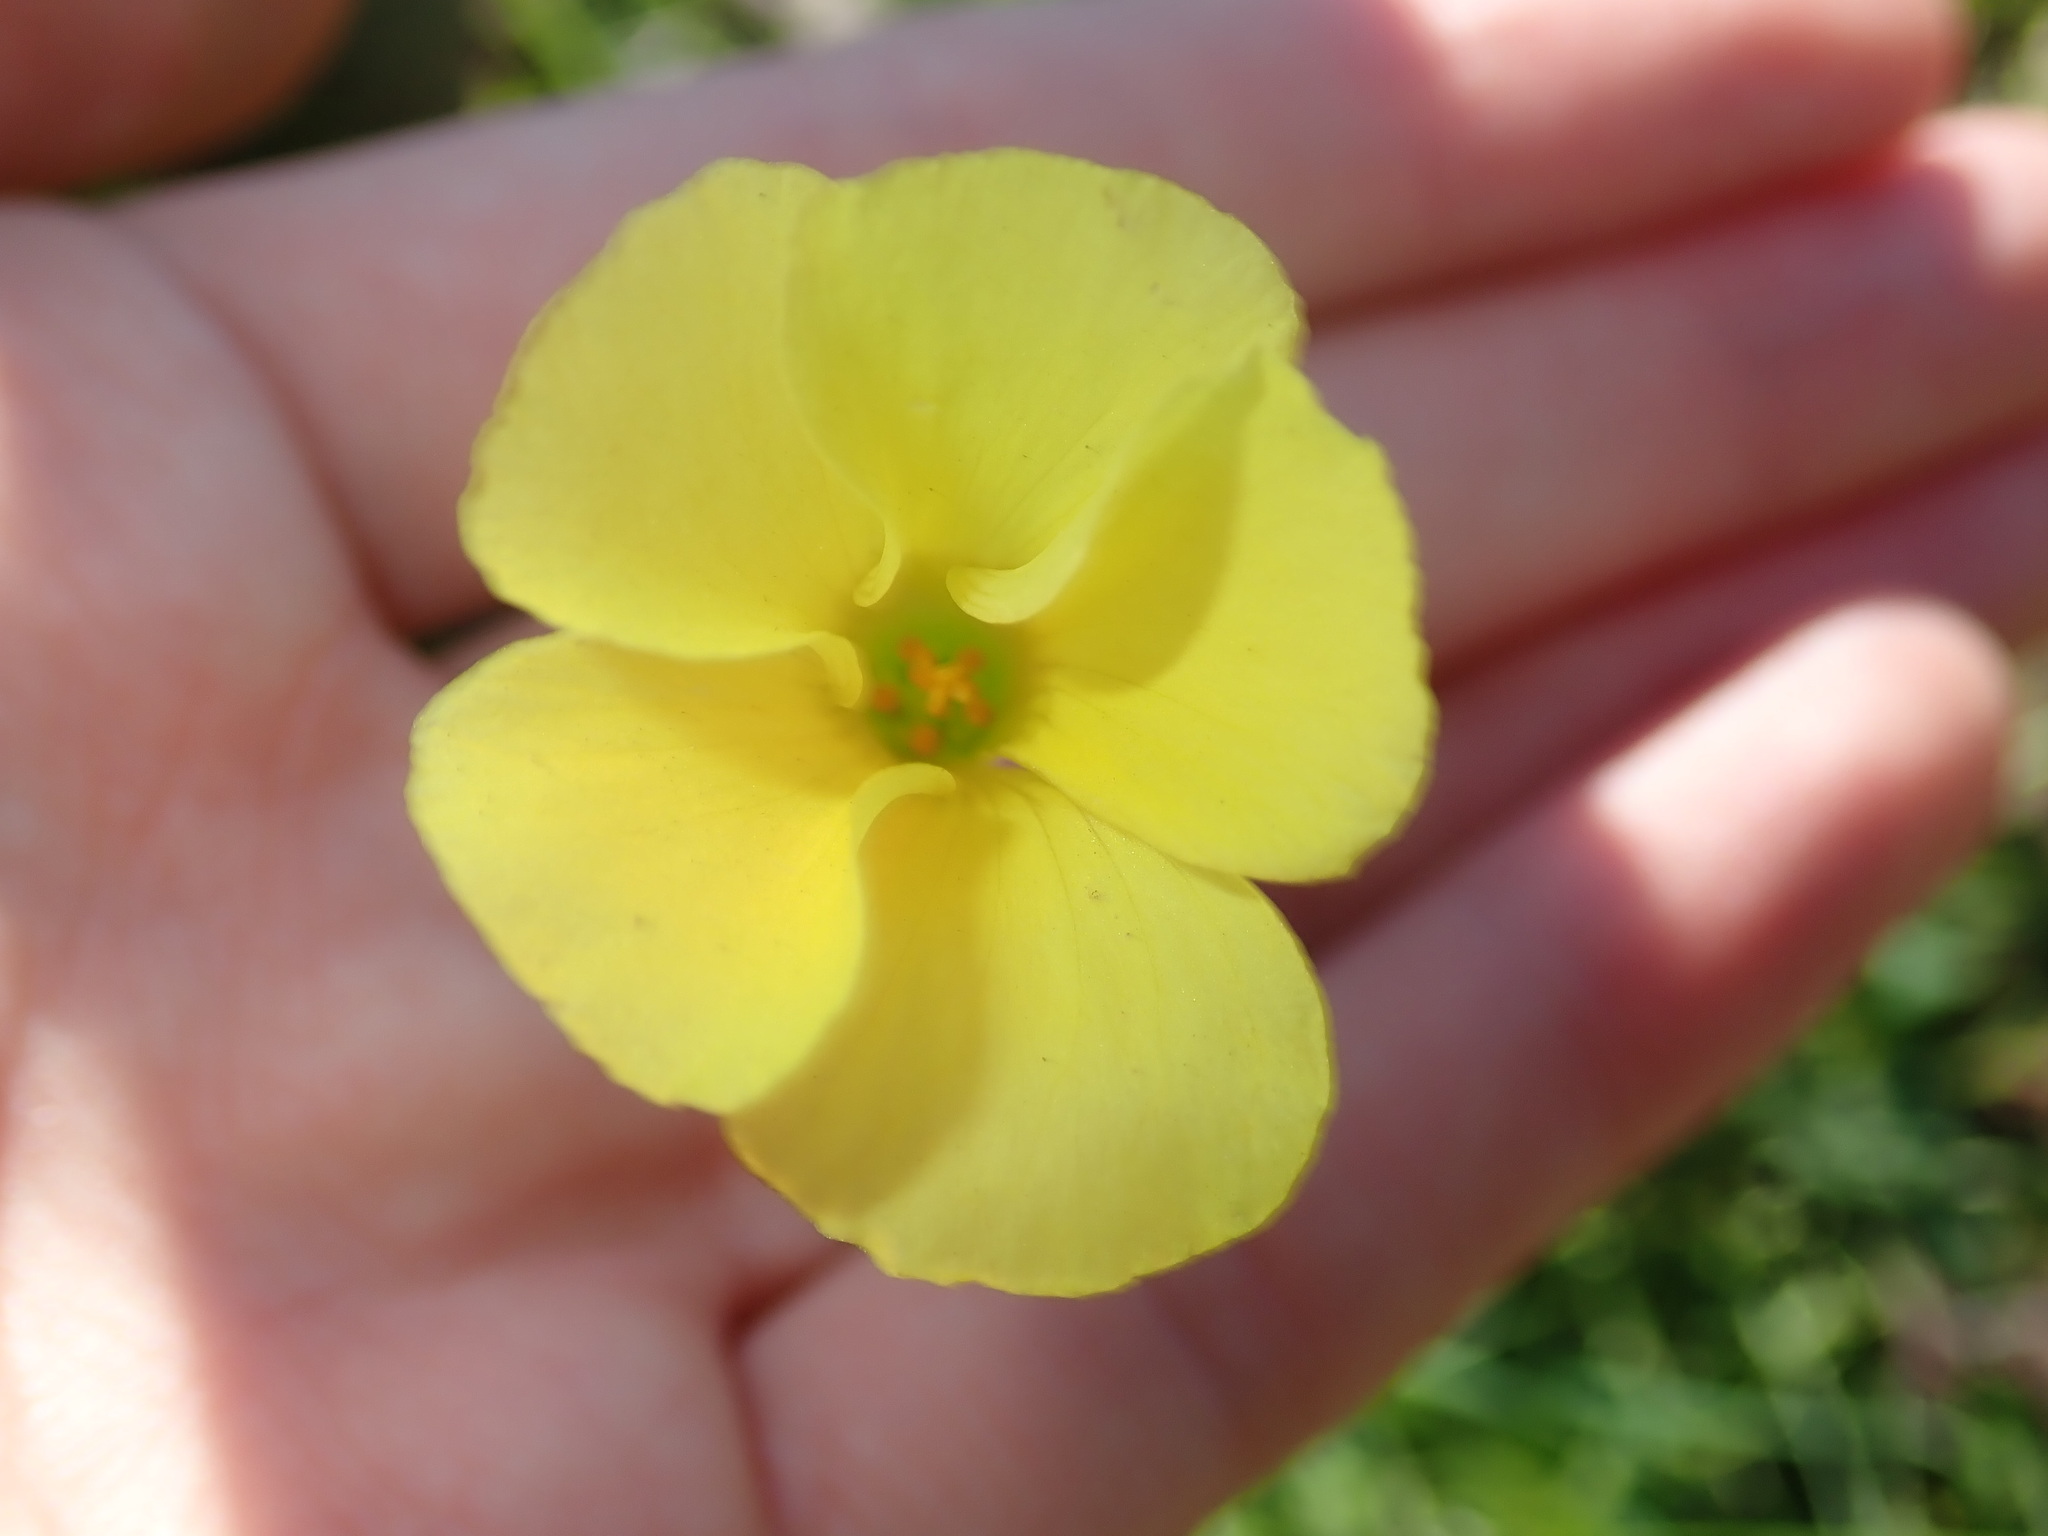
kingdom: Plantae
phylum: Tracheophyta
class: Magnoliopsida
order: Oxalidales
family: Oxalidaceae
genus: Oxalis
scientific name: Oxalis pes-caprae
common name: Bermuda-buttercup
